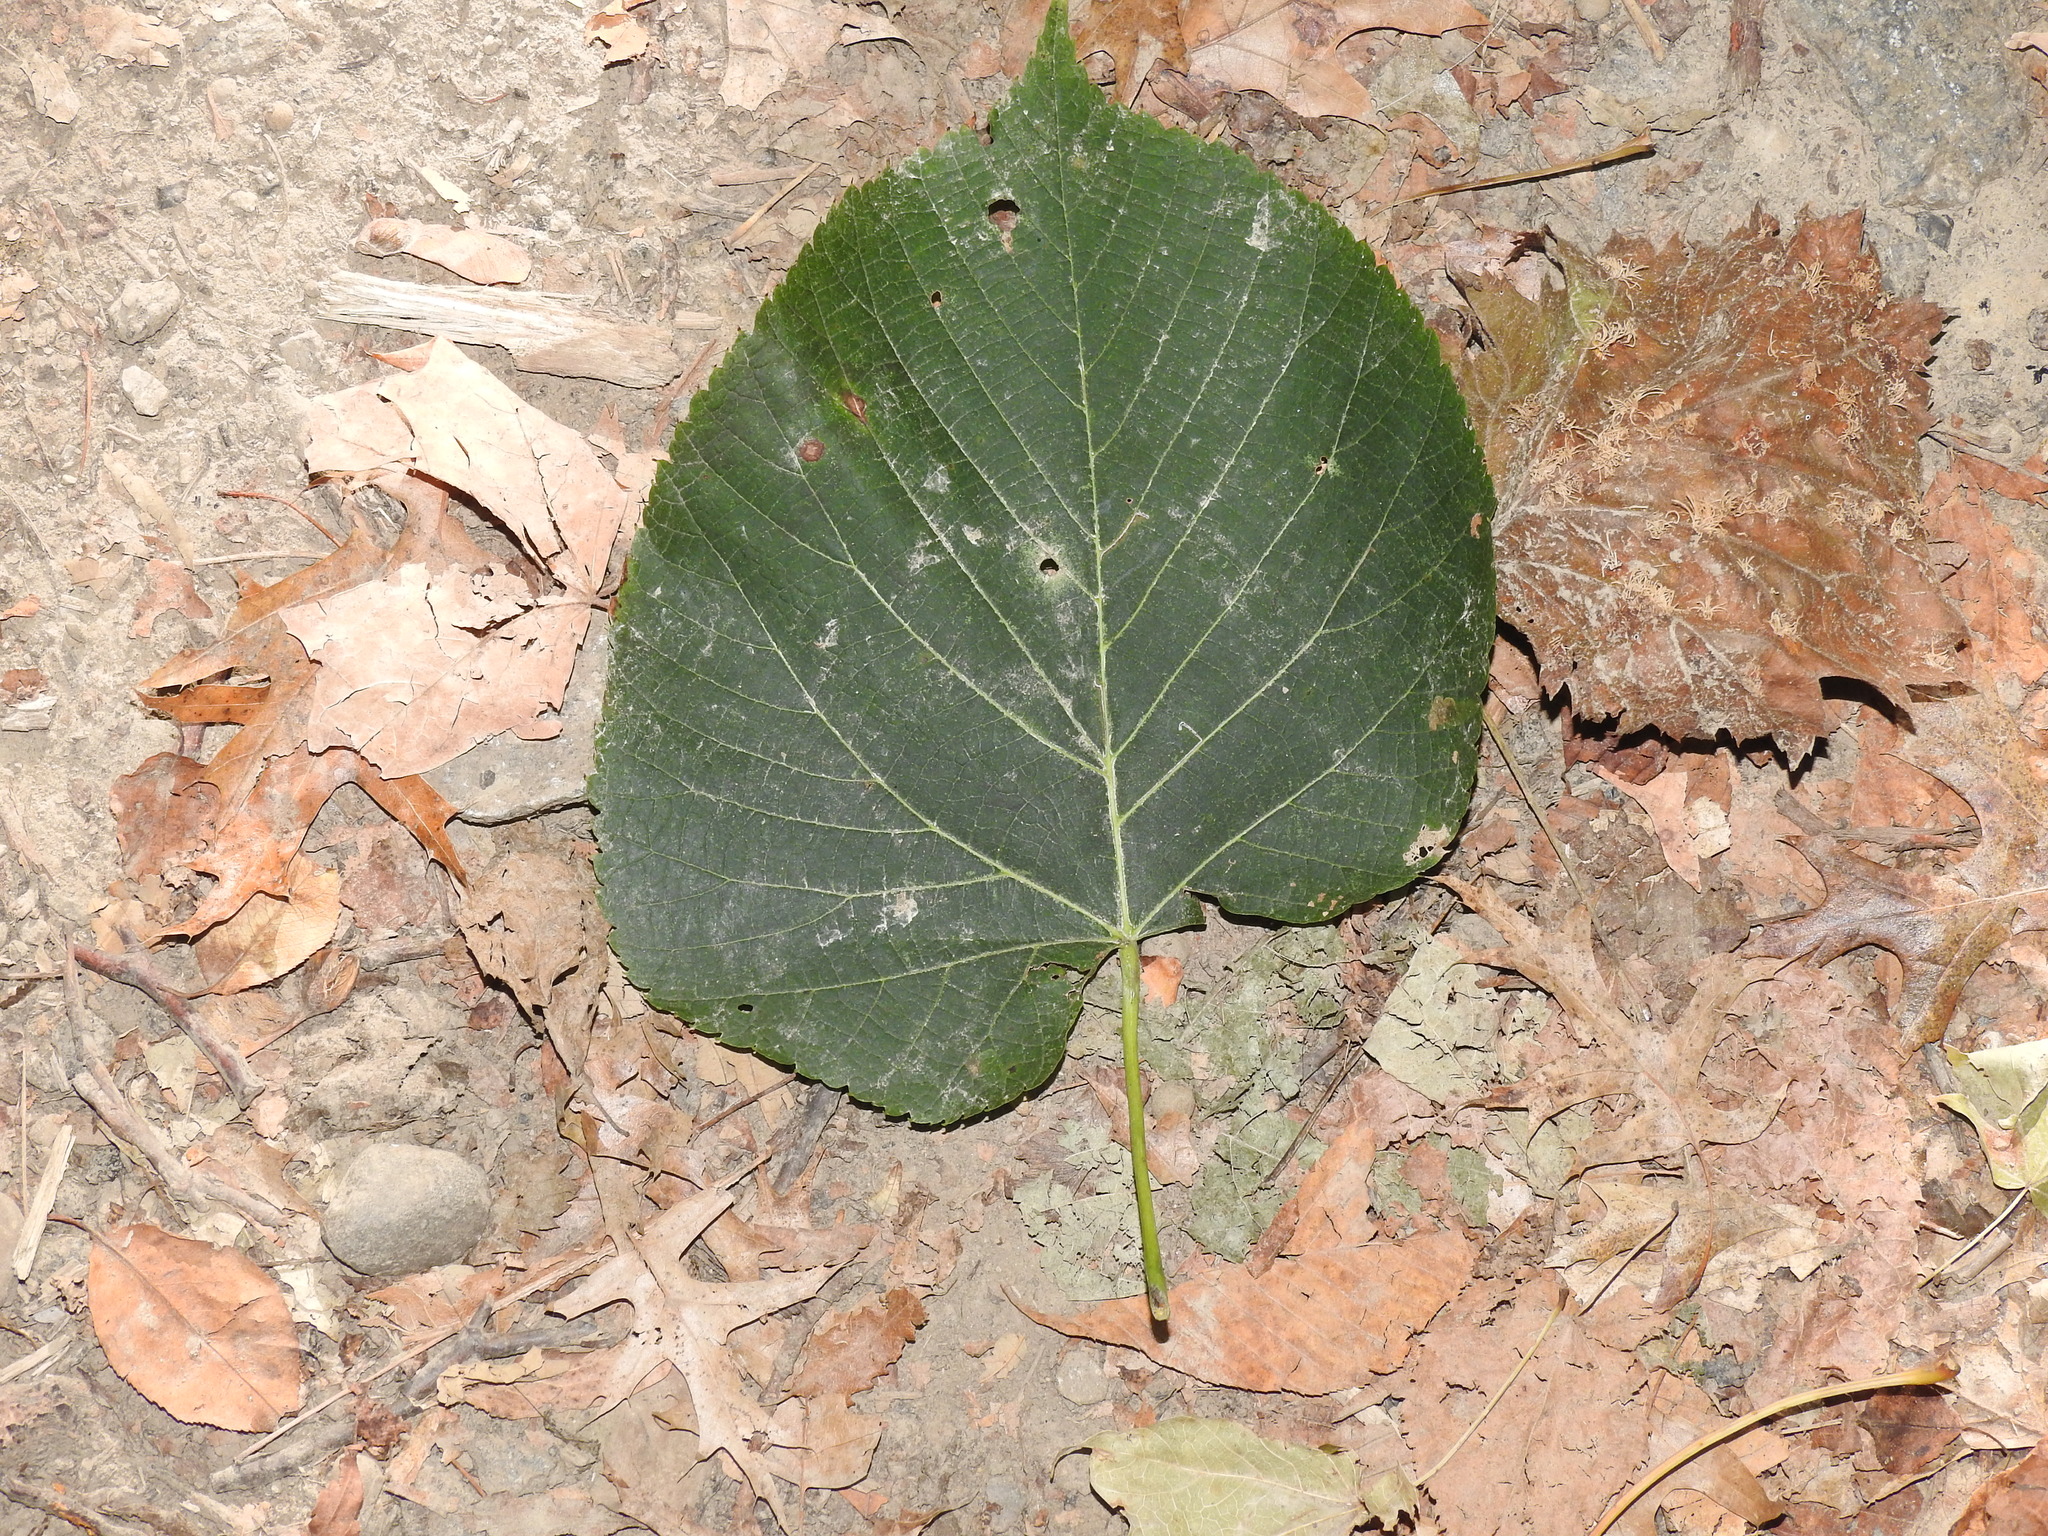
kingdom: Plantae
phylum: Tracheophyta
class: Magnoliopsida
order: Malvales
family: Malvaceae
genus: Tilia
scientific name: Tilia americana
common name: Basswood
